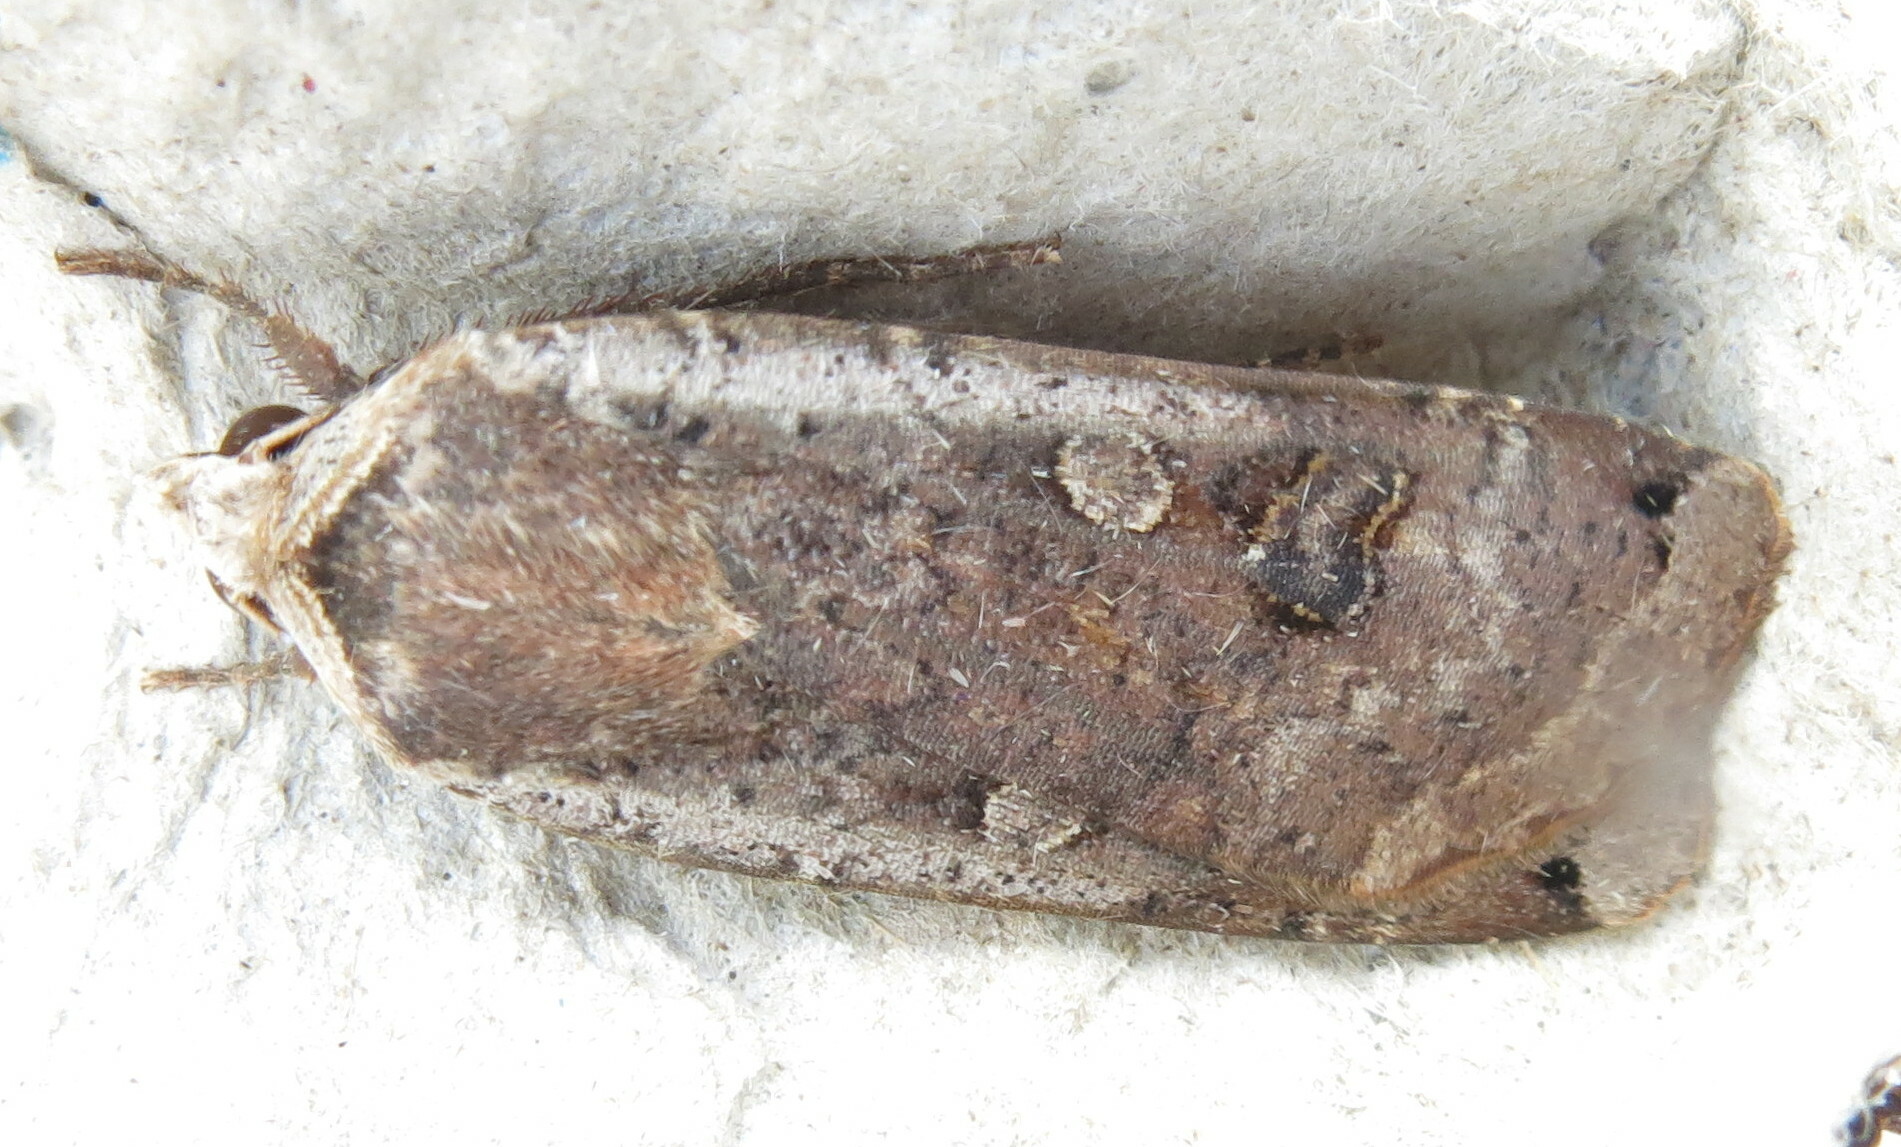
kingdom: Animalia
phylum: Arthropoda
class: Insecta
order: Lepidoptera
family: Noctuidae
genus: Noctua
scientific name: Noctua pronuba
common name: Large yellow underwing
